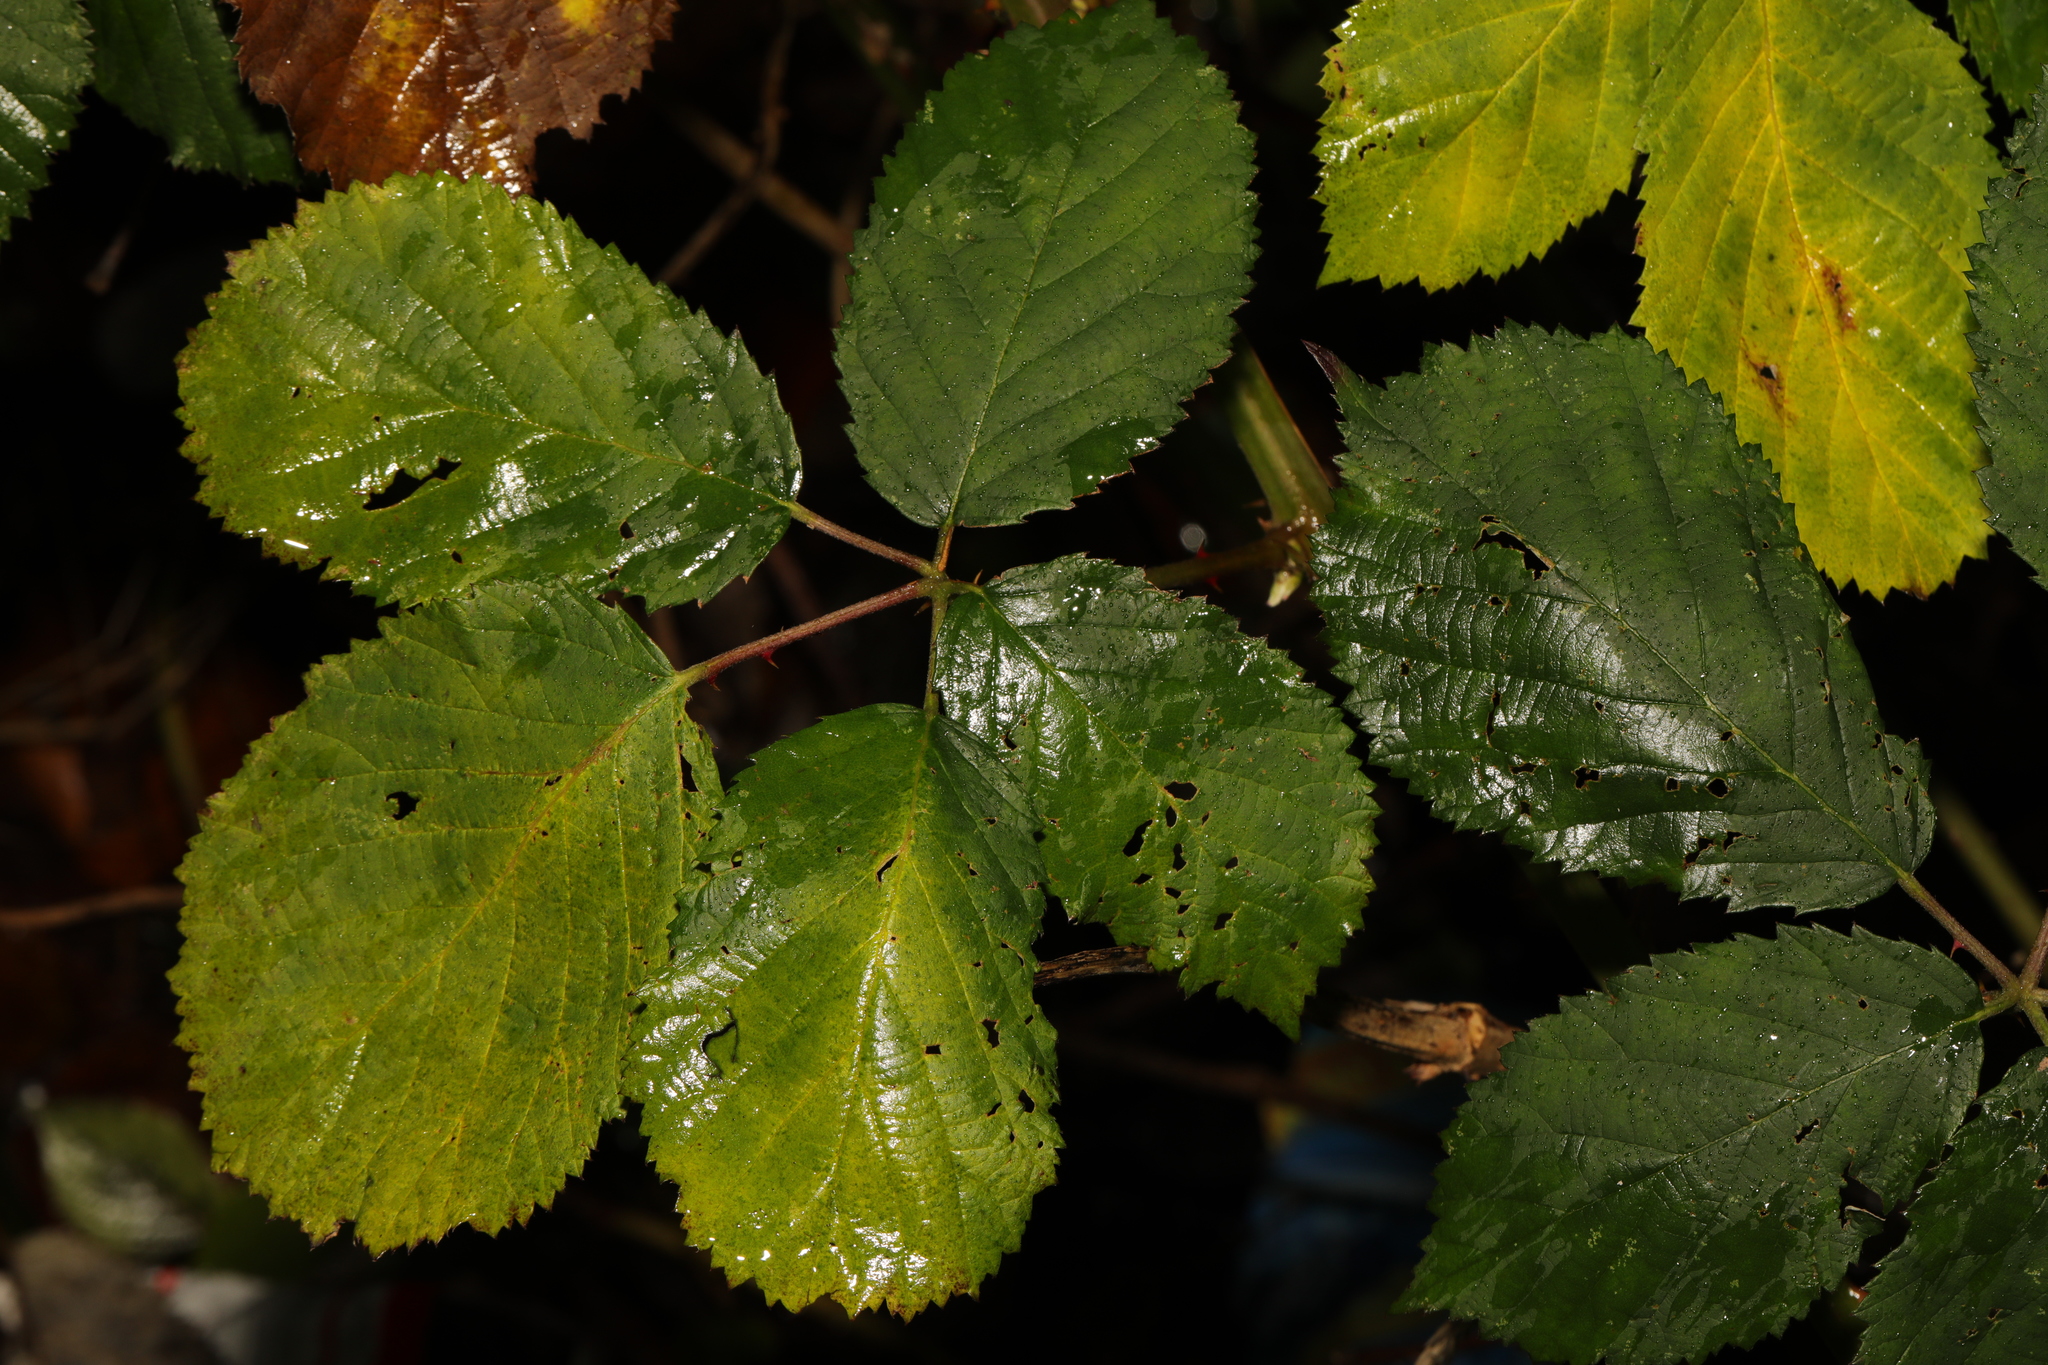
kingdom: Plantae
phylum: Tracheophyta
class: Magnoliopsida
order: Rosales
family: Rosaceae
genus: Rubus
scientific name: Rubus armeniacus
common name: Himalayan blackberry
